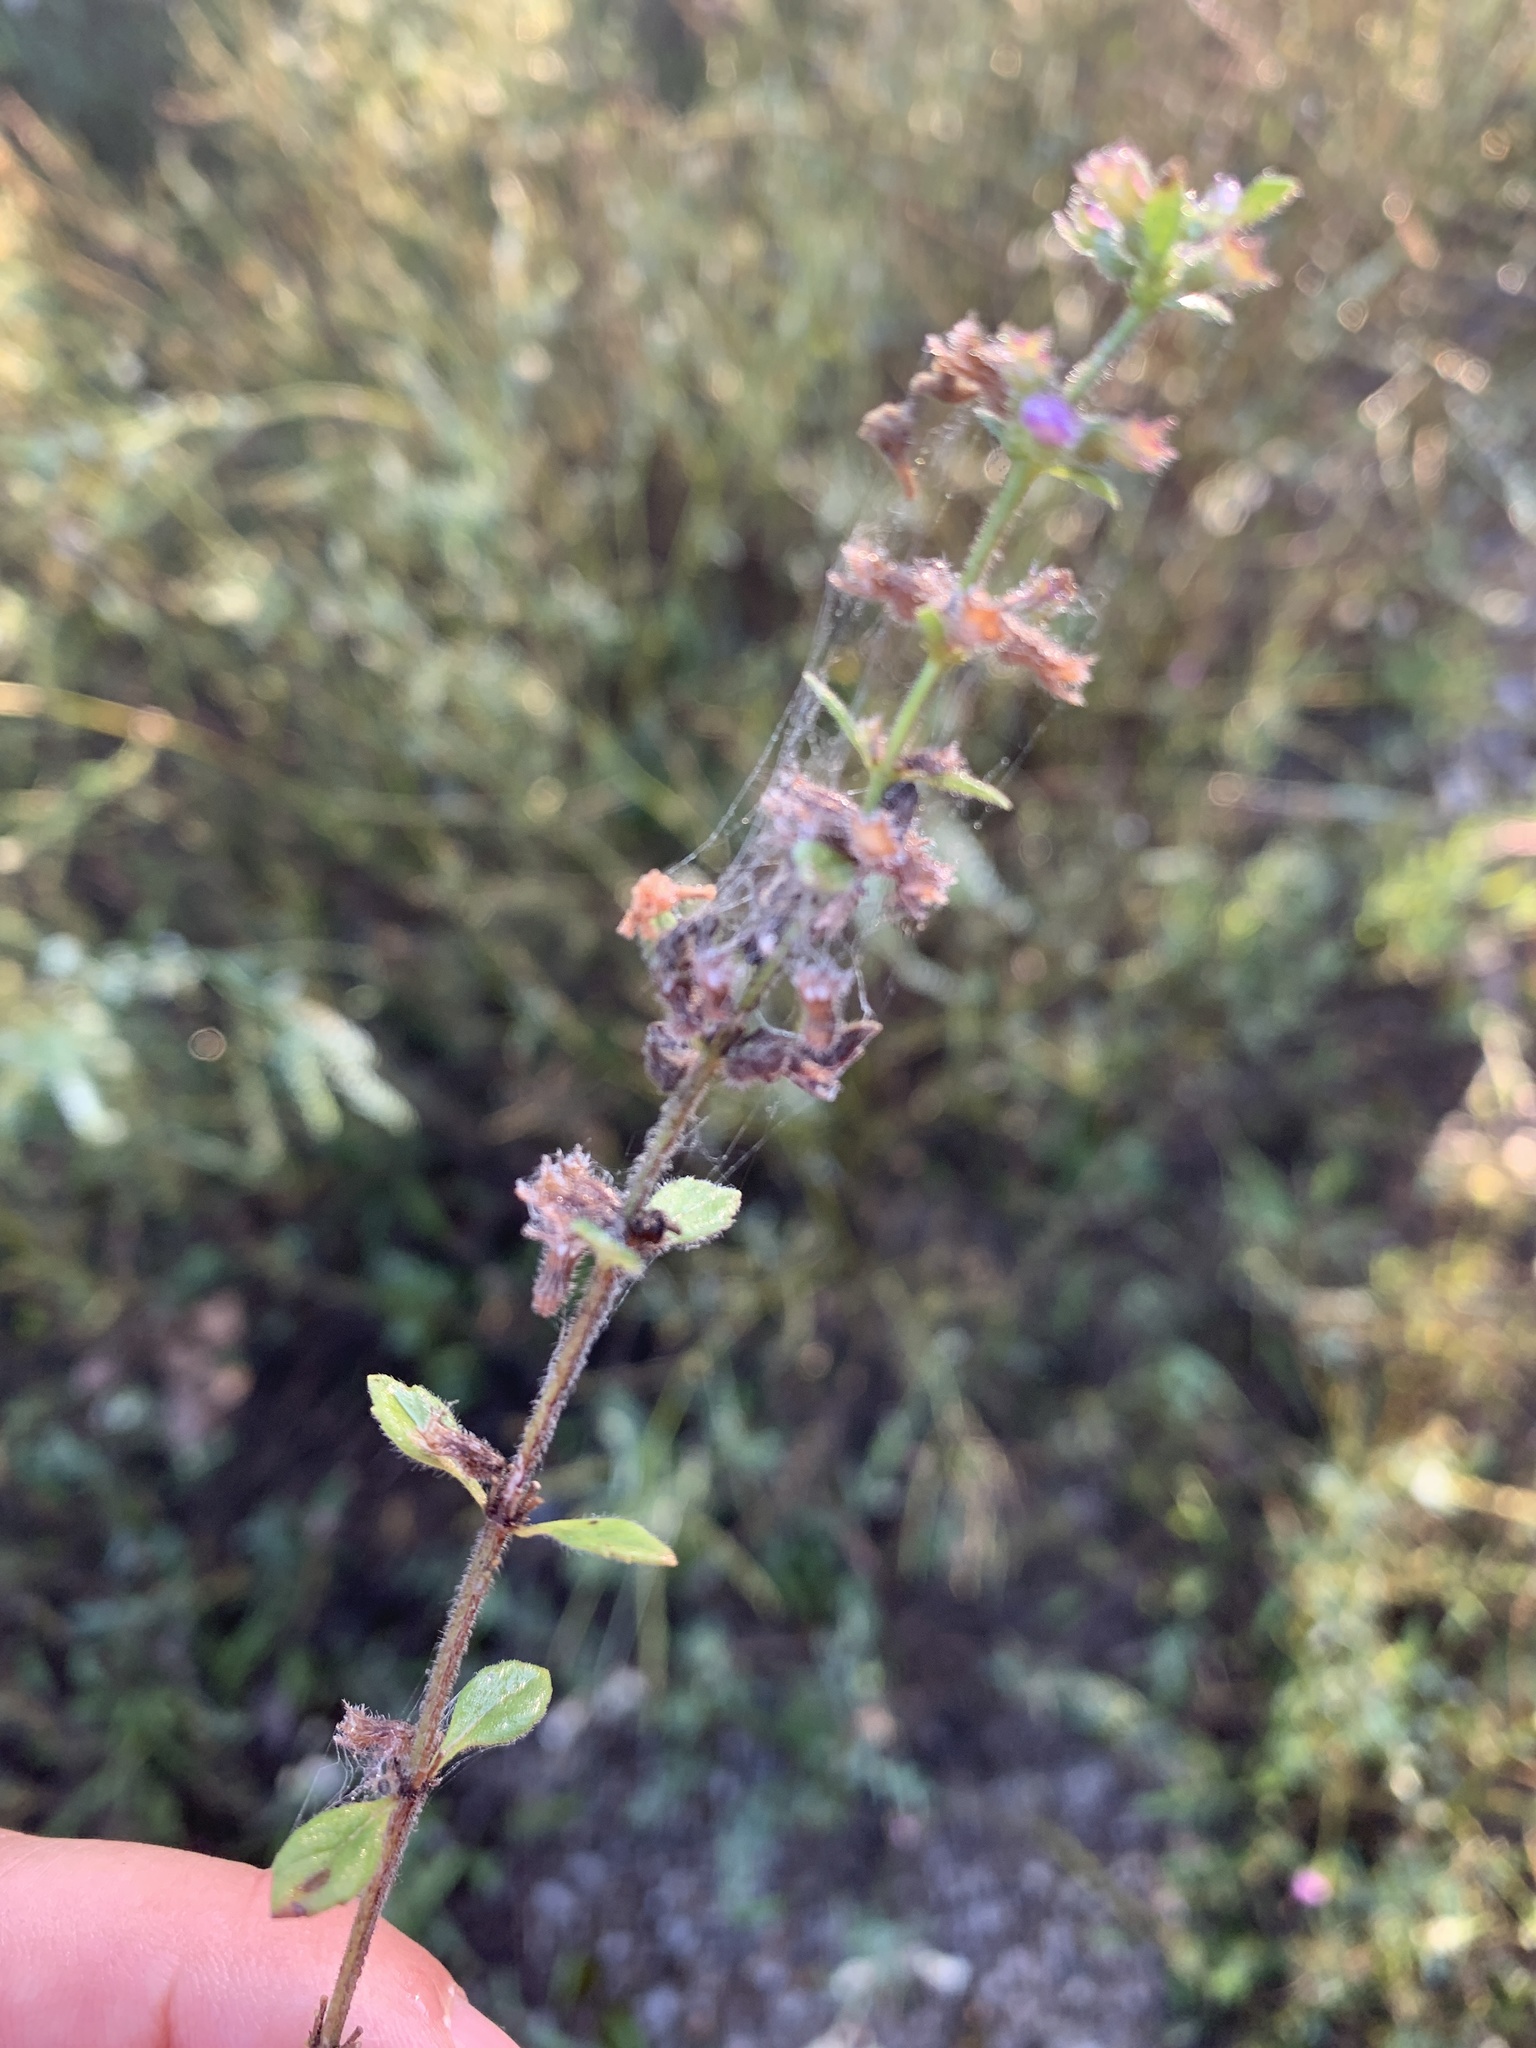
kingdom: Plantae
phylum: Tracheophyta
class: Magnoliopsida
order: Lamiales
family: Lamiaceae
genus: Clinopodium
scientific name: Clinopodium acinos
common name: Basil thyme
